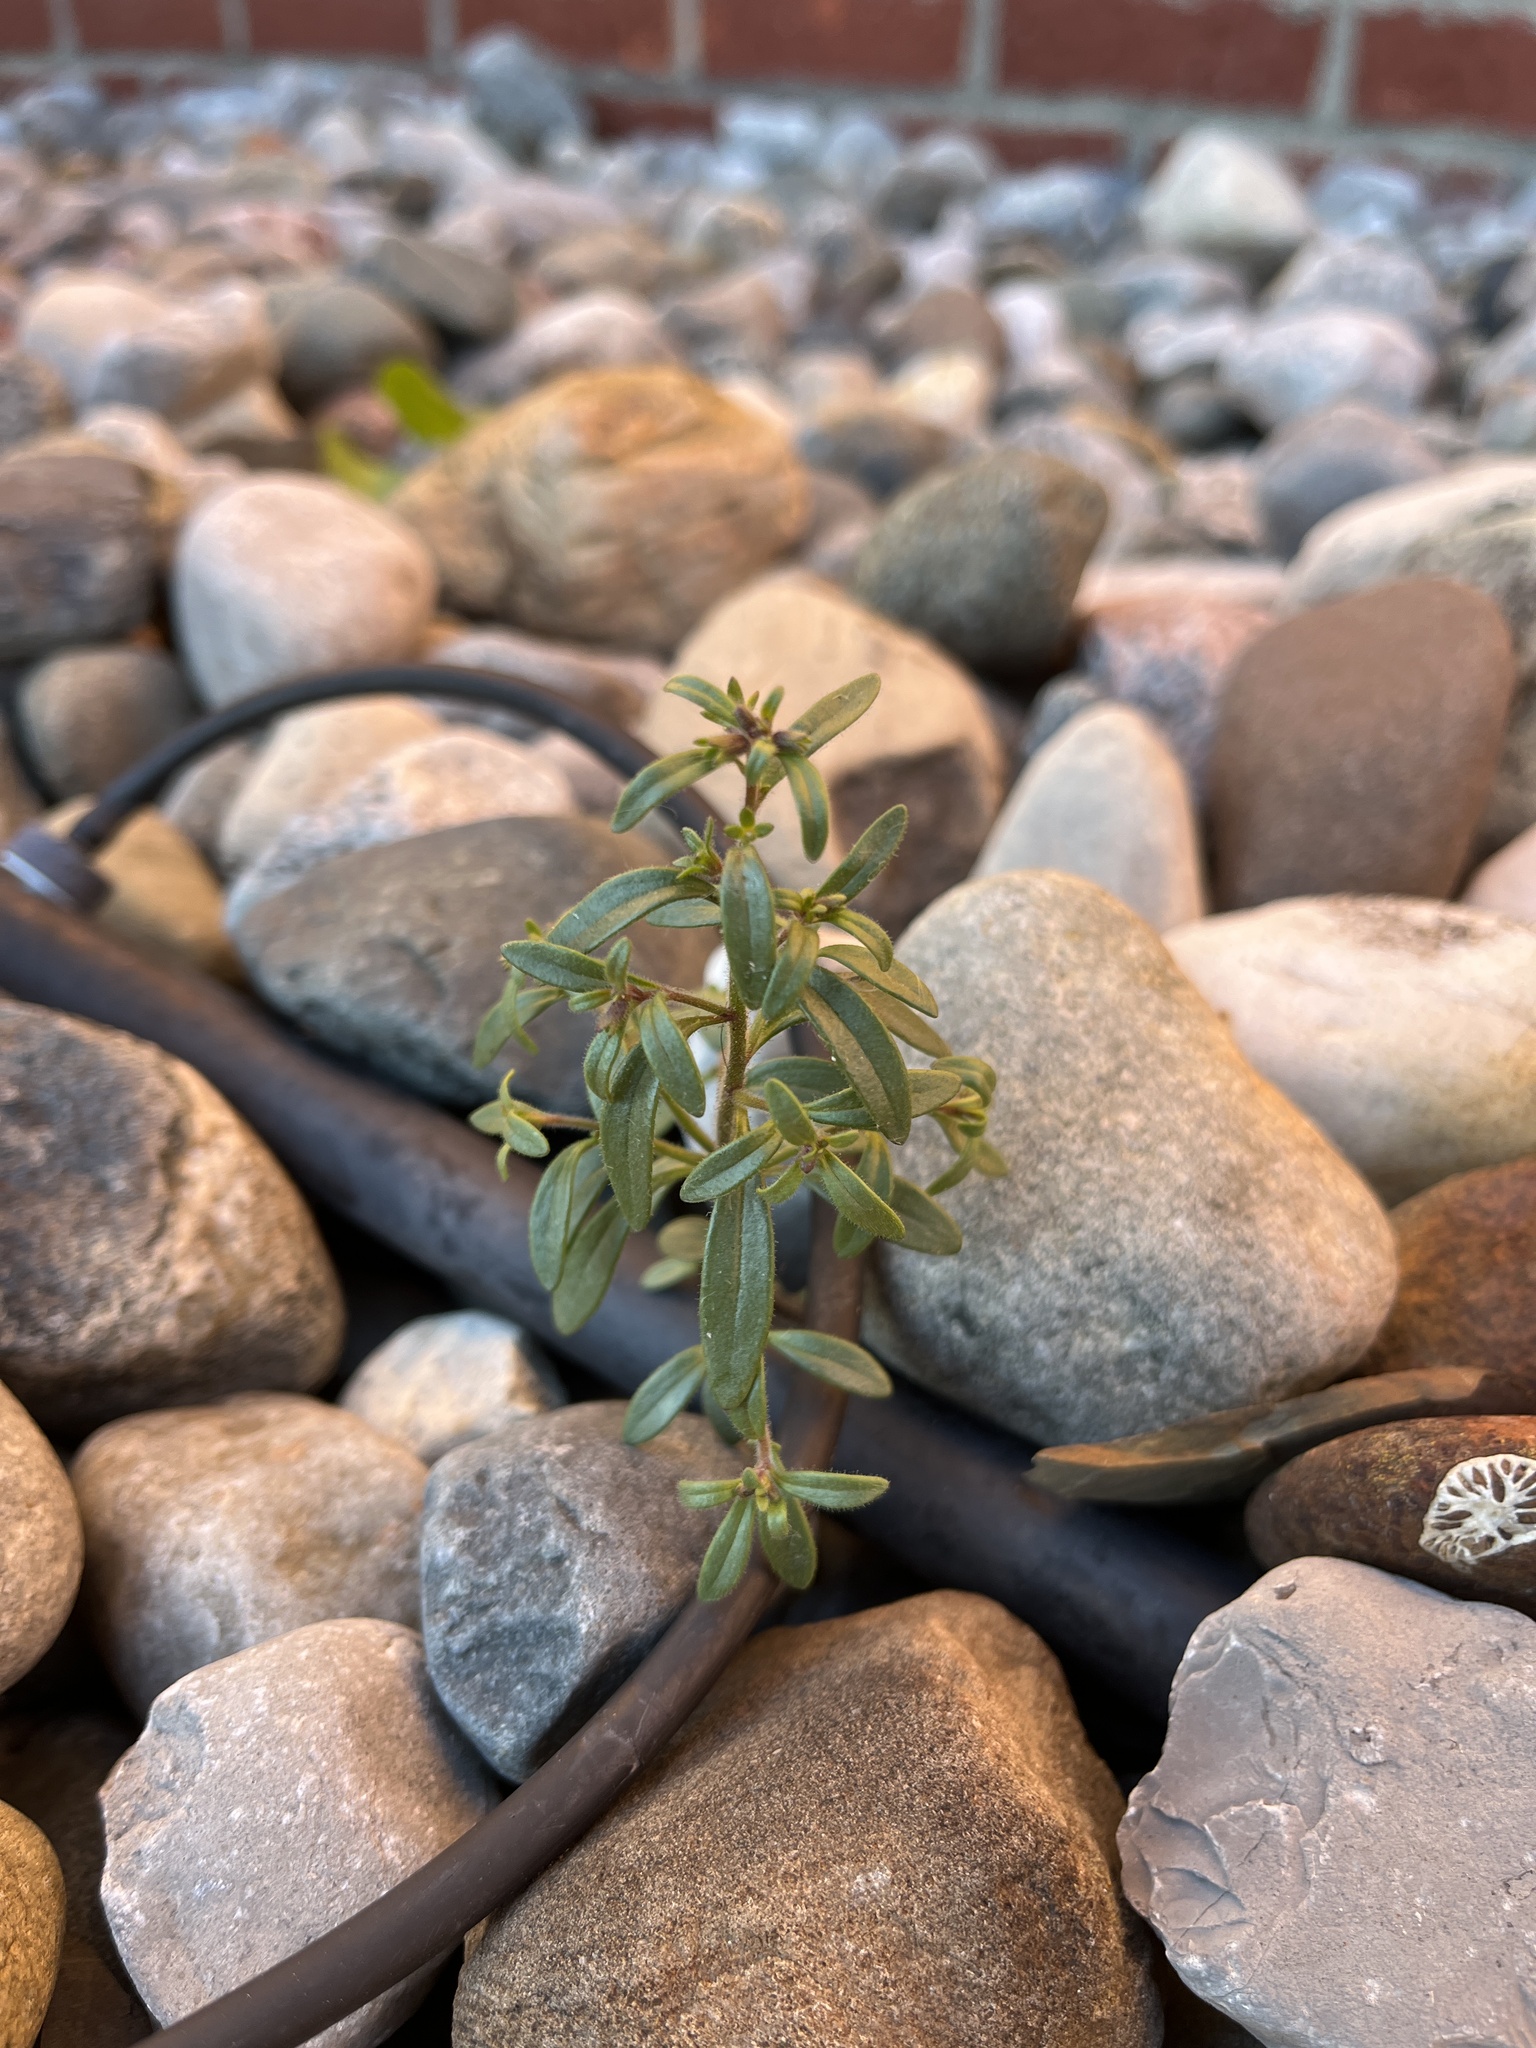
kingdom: Plantae
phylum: Tracheophyta
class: Magnoliopsida
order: Lamiales
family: Plantaginaceae
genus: Chaenorhinum
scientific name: Chaenorhinum minus
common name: Dwarf snapdragon
